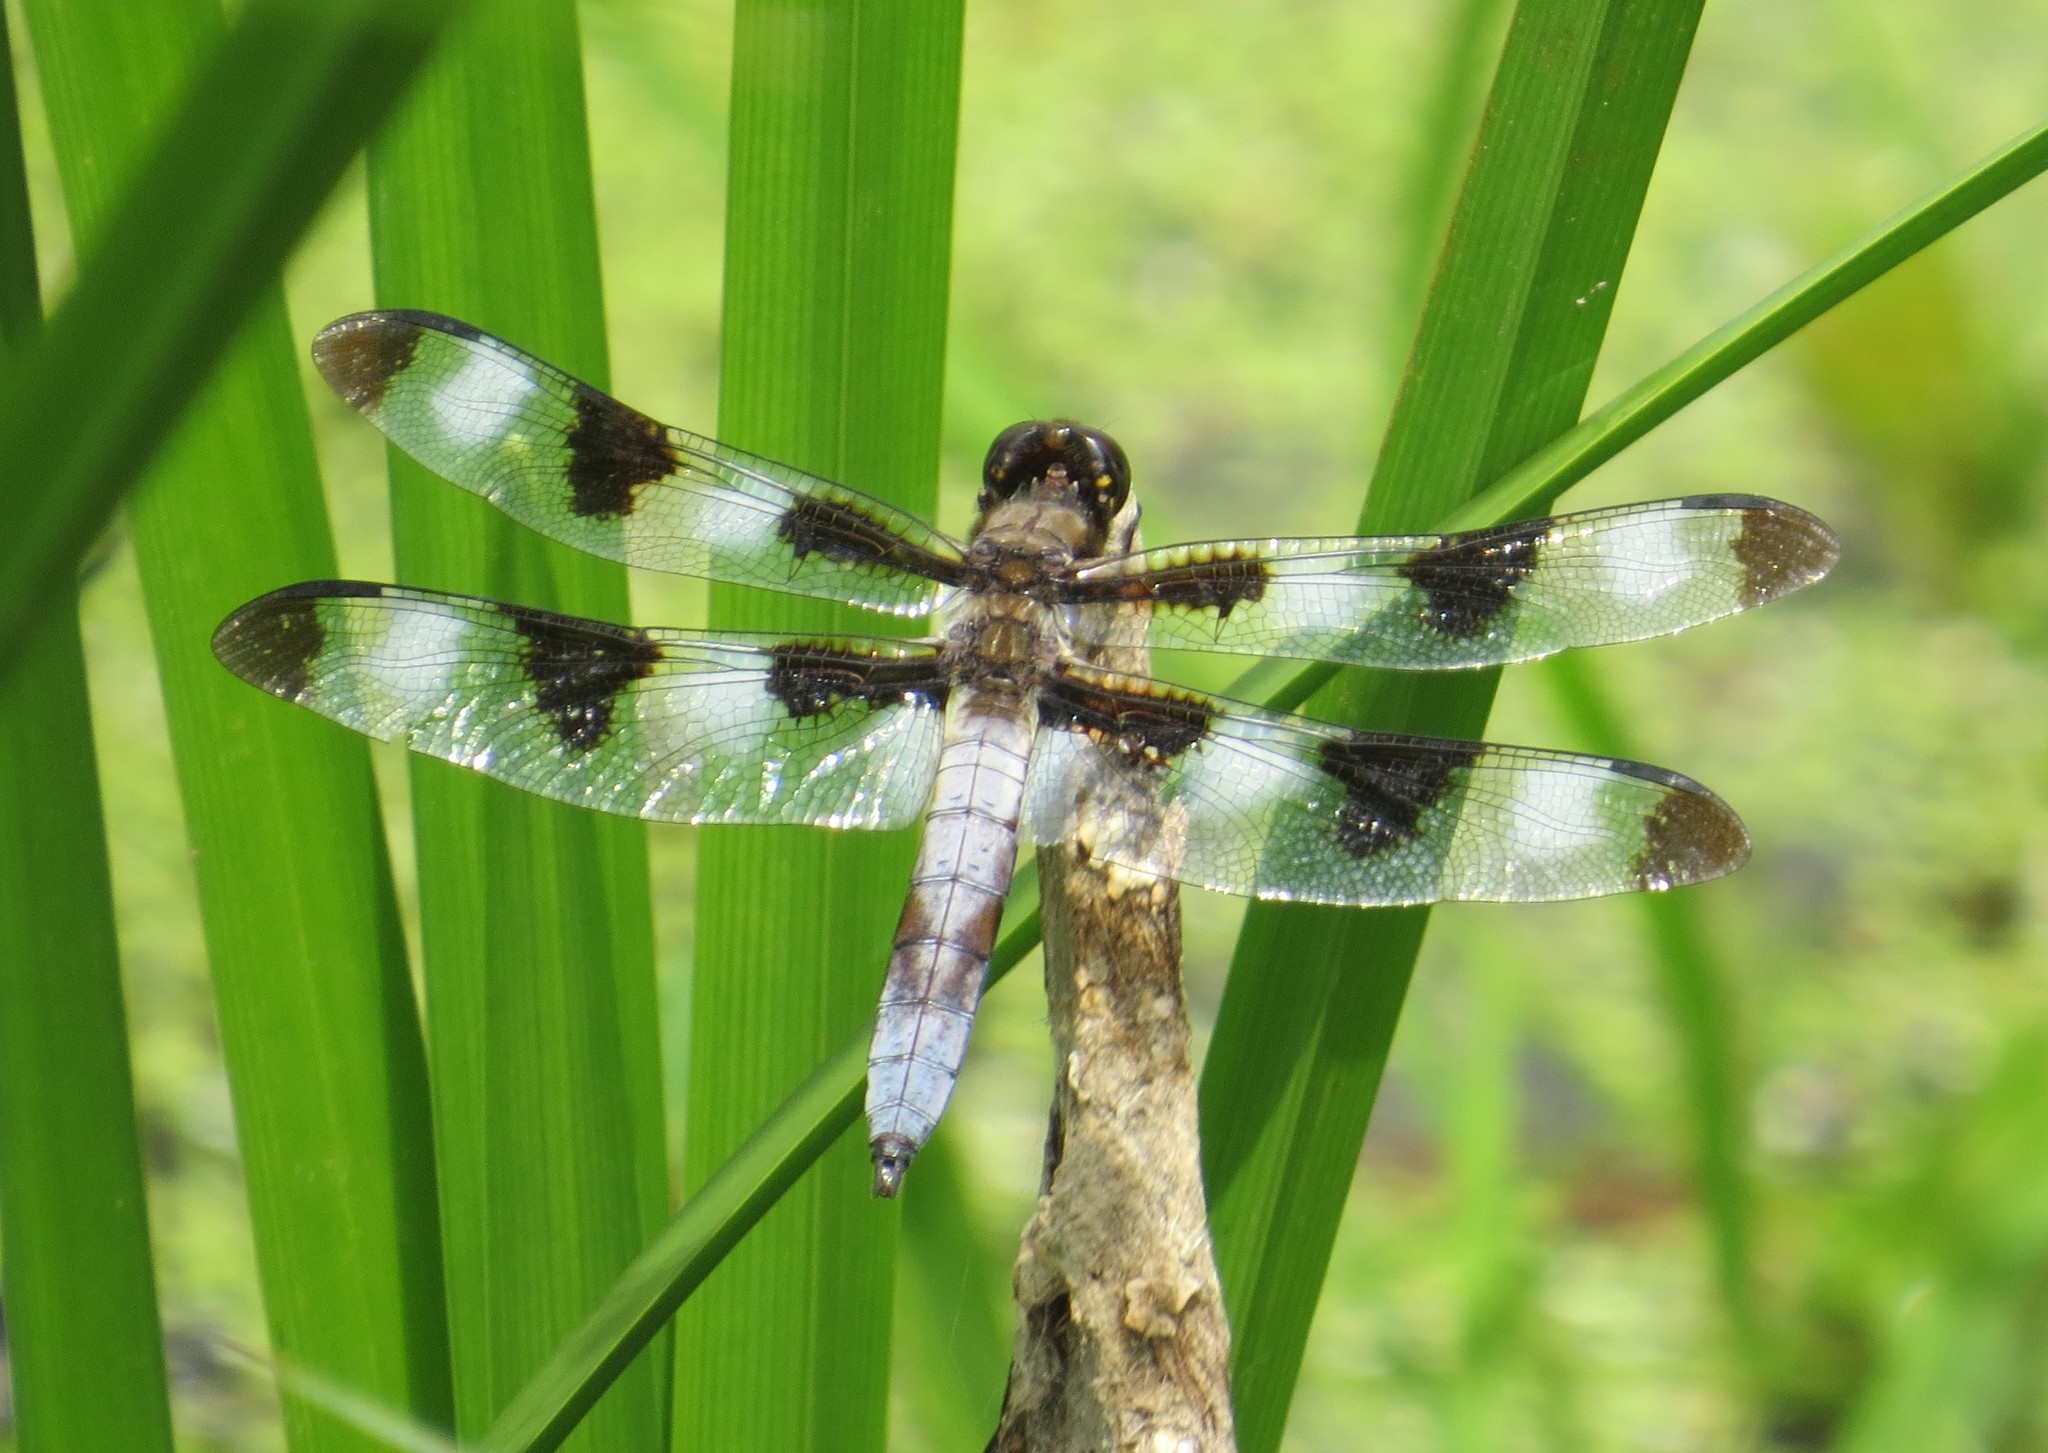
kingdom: Animalia
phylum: Arthropoda
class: Insecta
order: Odonata
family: Libellulidae
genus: Libellula
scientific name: Libellula pulchella
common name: Twelve-spotted skimmer
